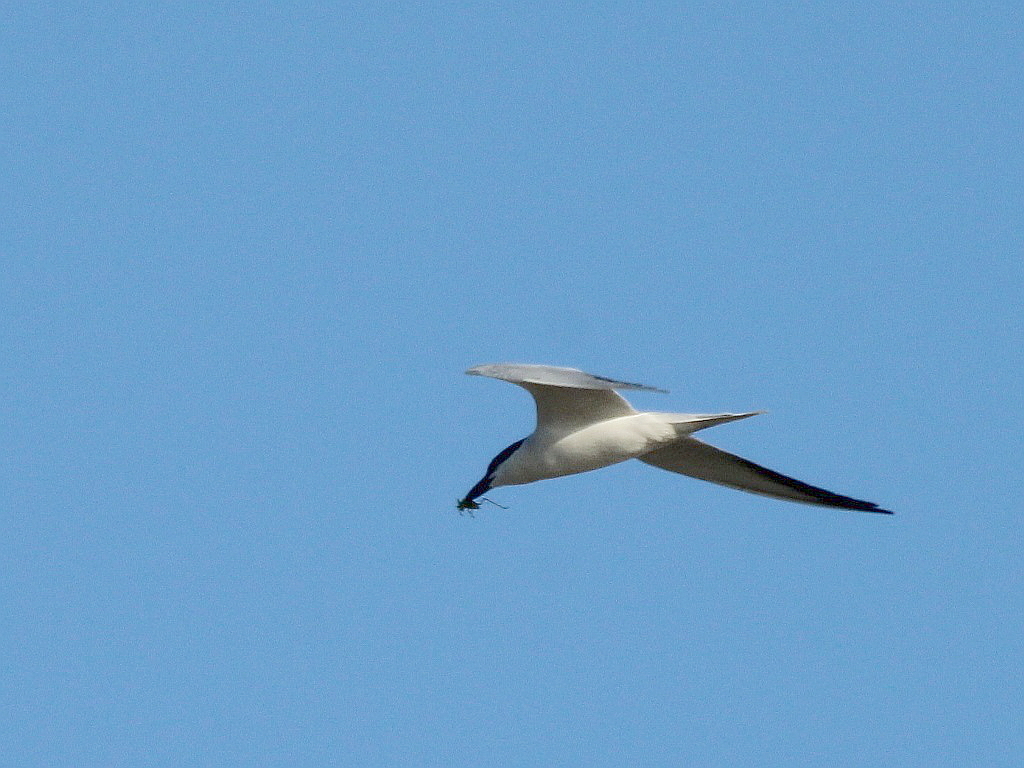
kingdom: Animalia
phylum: Chordata
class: Aves
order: Charadriiformes
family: Laridae
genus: Gelochelidon
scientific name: Gelochelidon nilotica
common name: Gull-billed tern
